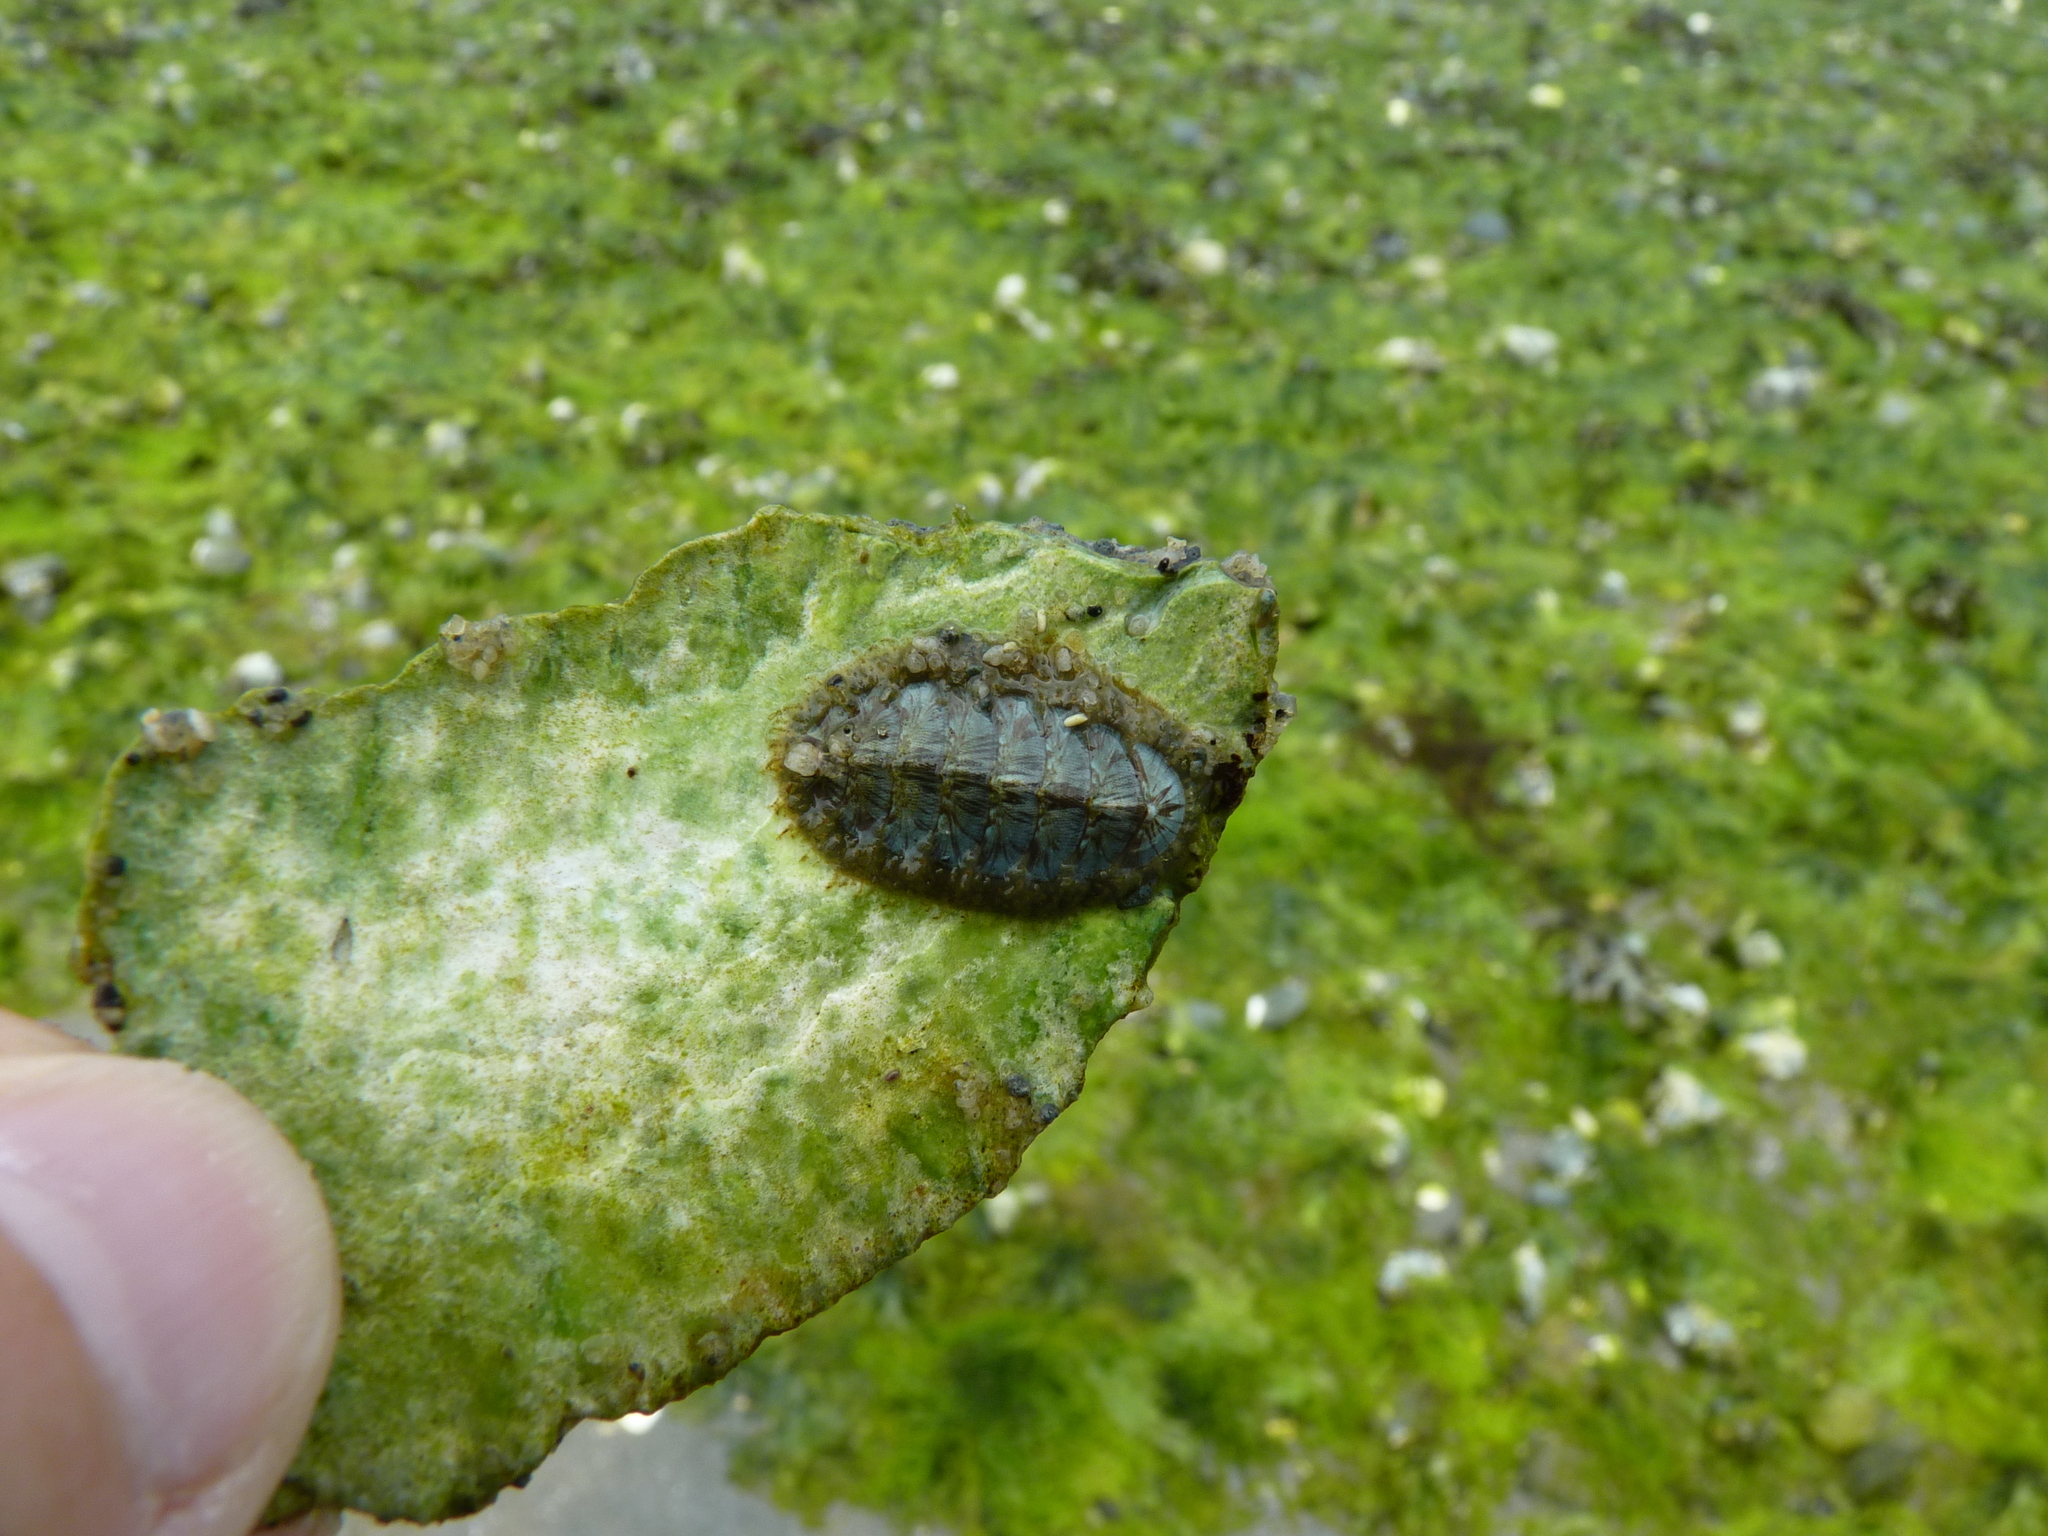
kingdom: Animalia
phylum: Mollusca
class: Polyplacophora
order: Chitonida
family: Mopaliidae
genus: Mopalia
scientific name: Mopalia lignosa
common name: Woody chiton
